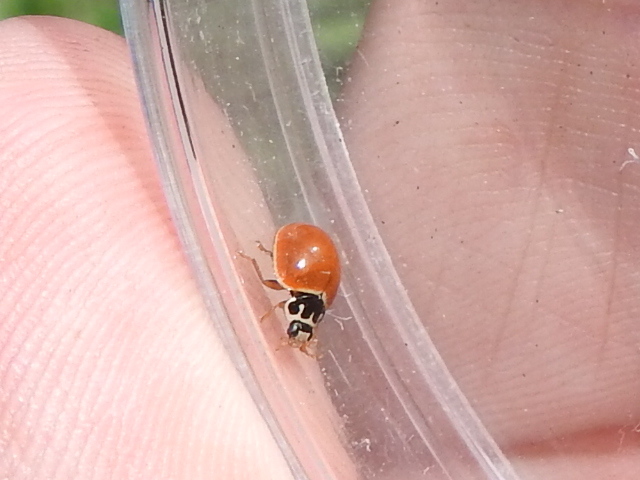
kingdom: Animalia
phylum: Arthropoda
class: Insecta
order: Coleoptera
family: Coccinellidae
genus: Cycloneda
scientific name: Cycloneda munda
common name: Polished lady beetle
